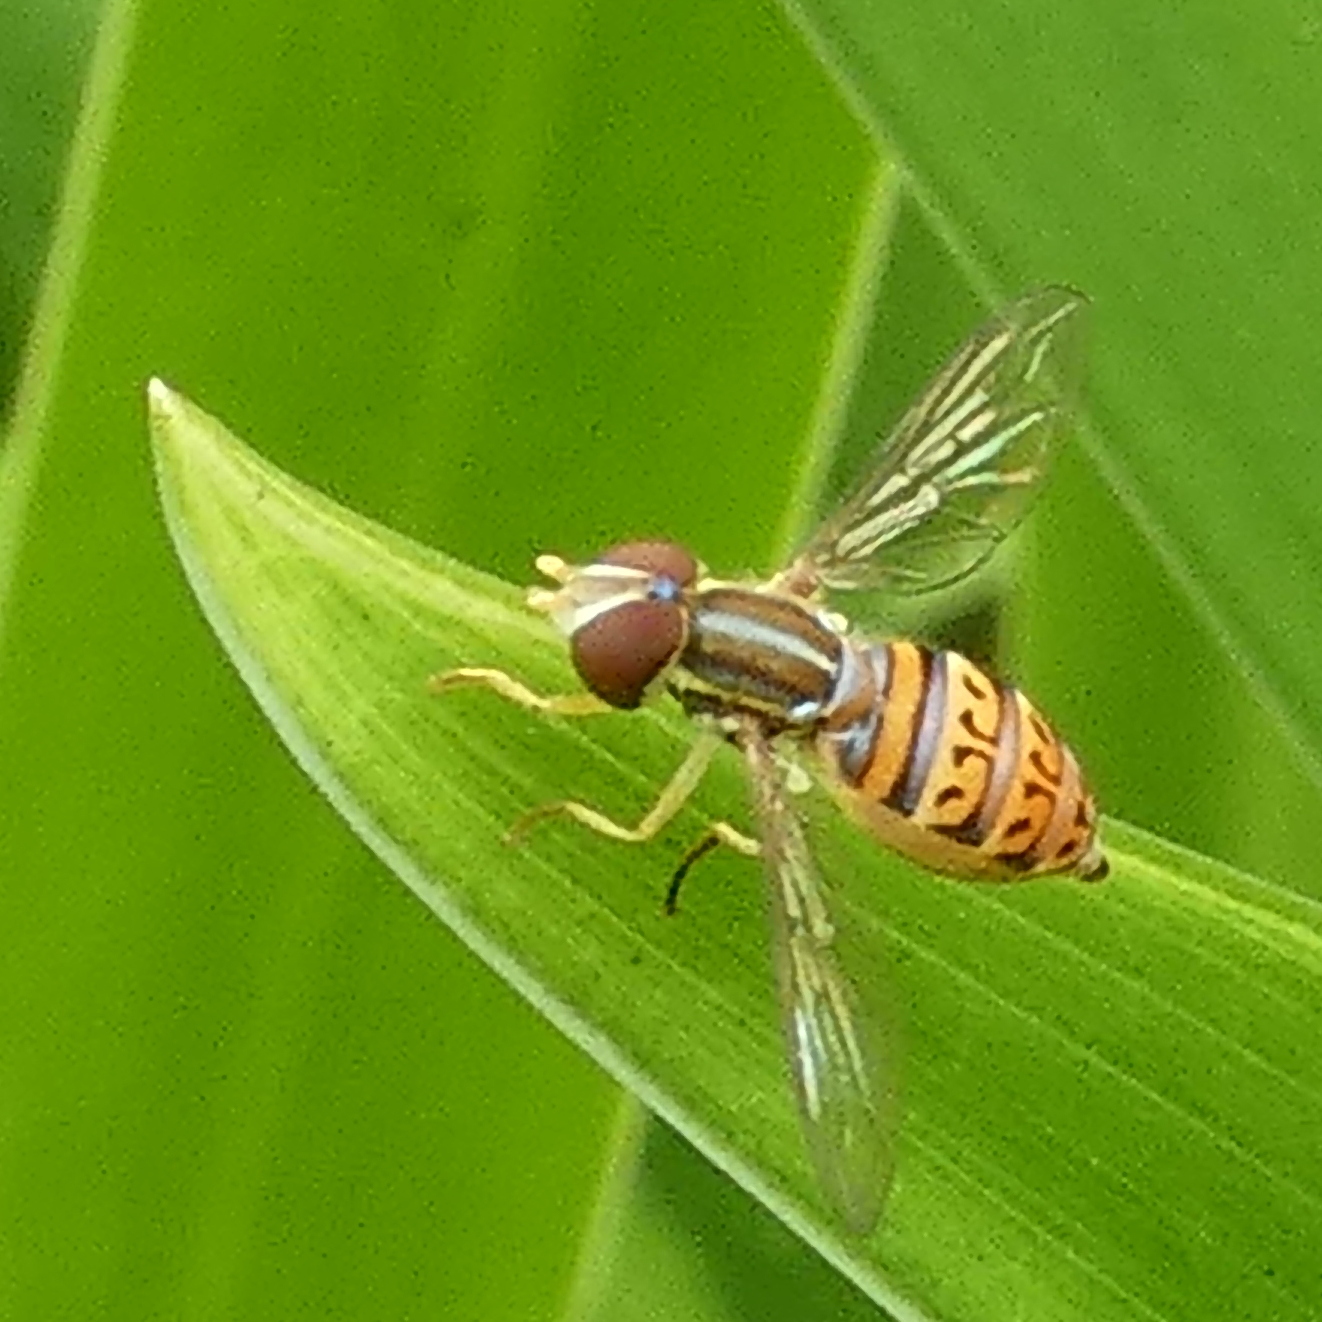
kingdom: Animalia
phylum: Arthropoda
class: Insecta
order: Diptera
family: Syrphidae
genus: Toxomerus
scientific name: Toxomerus pulchellus
